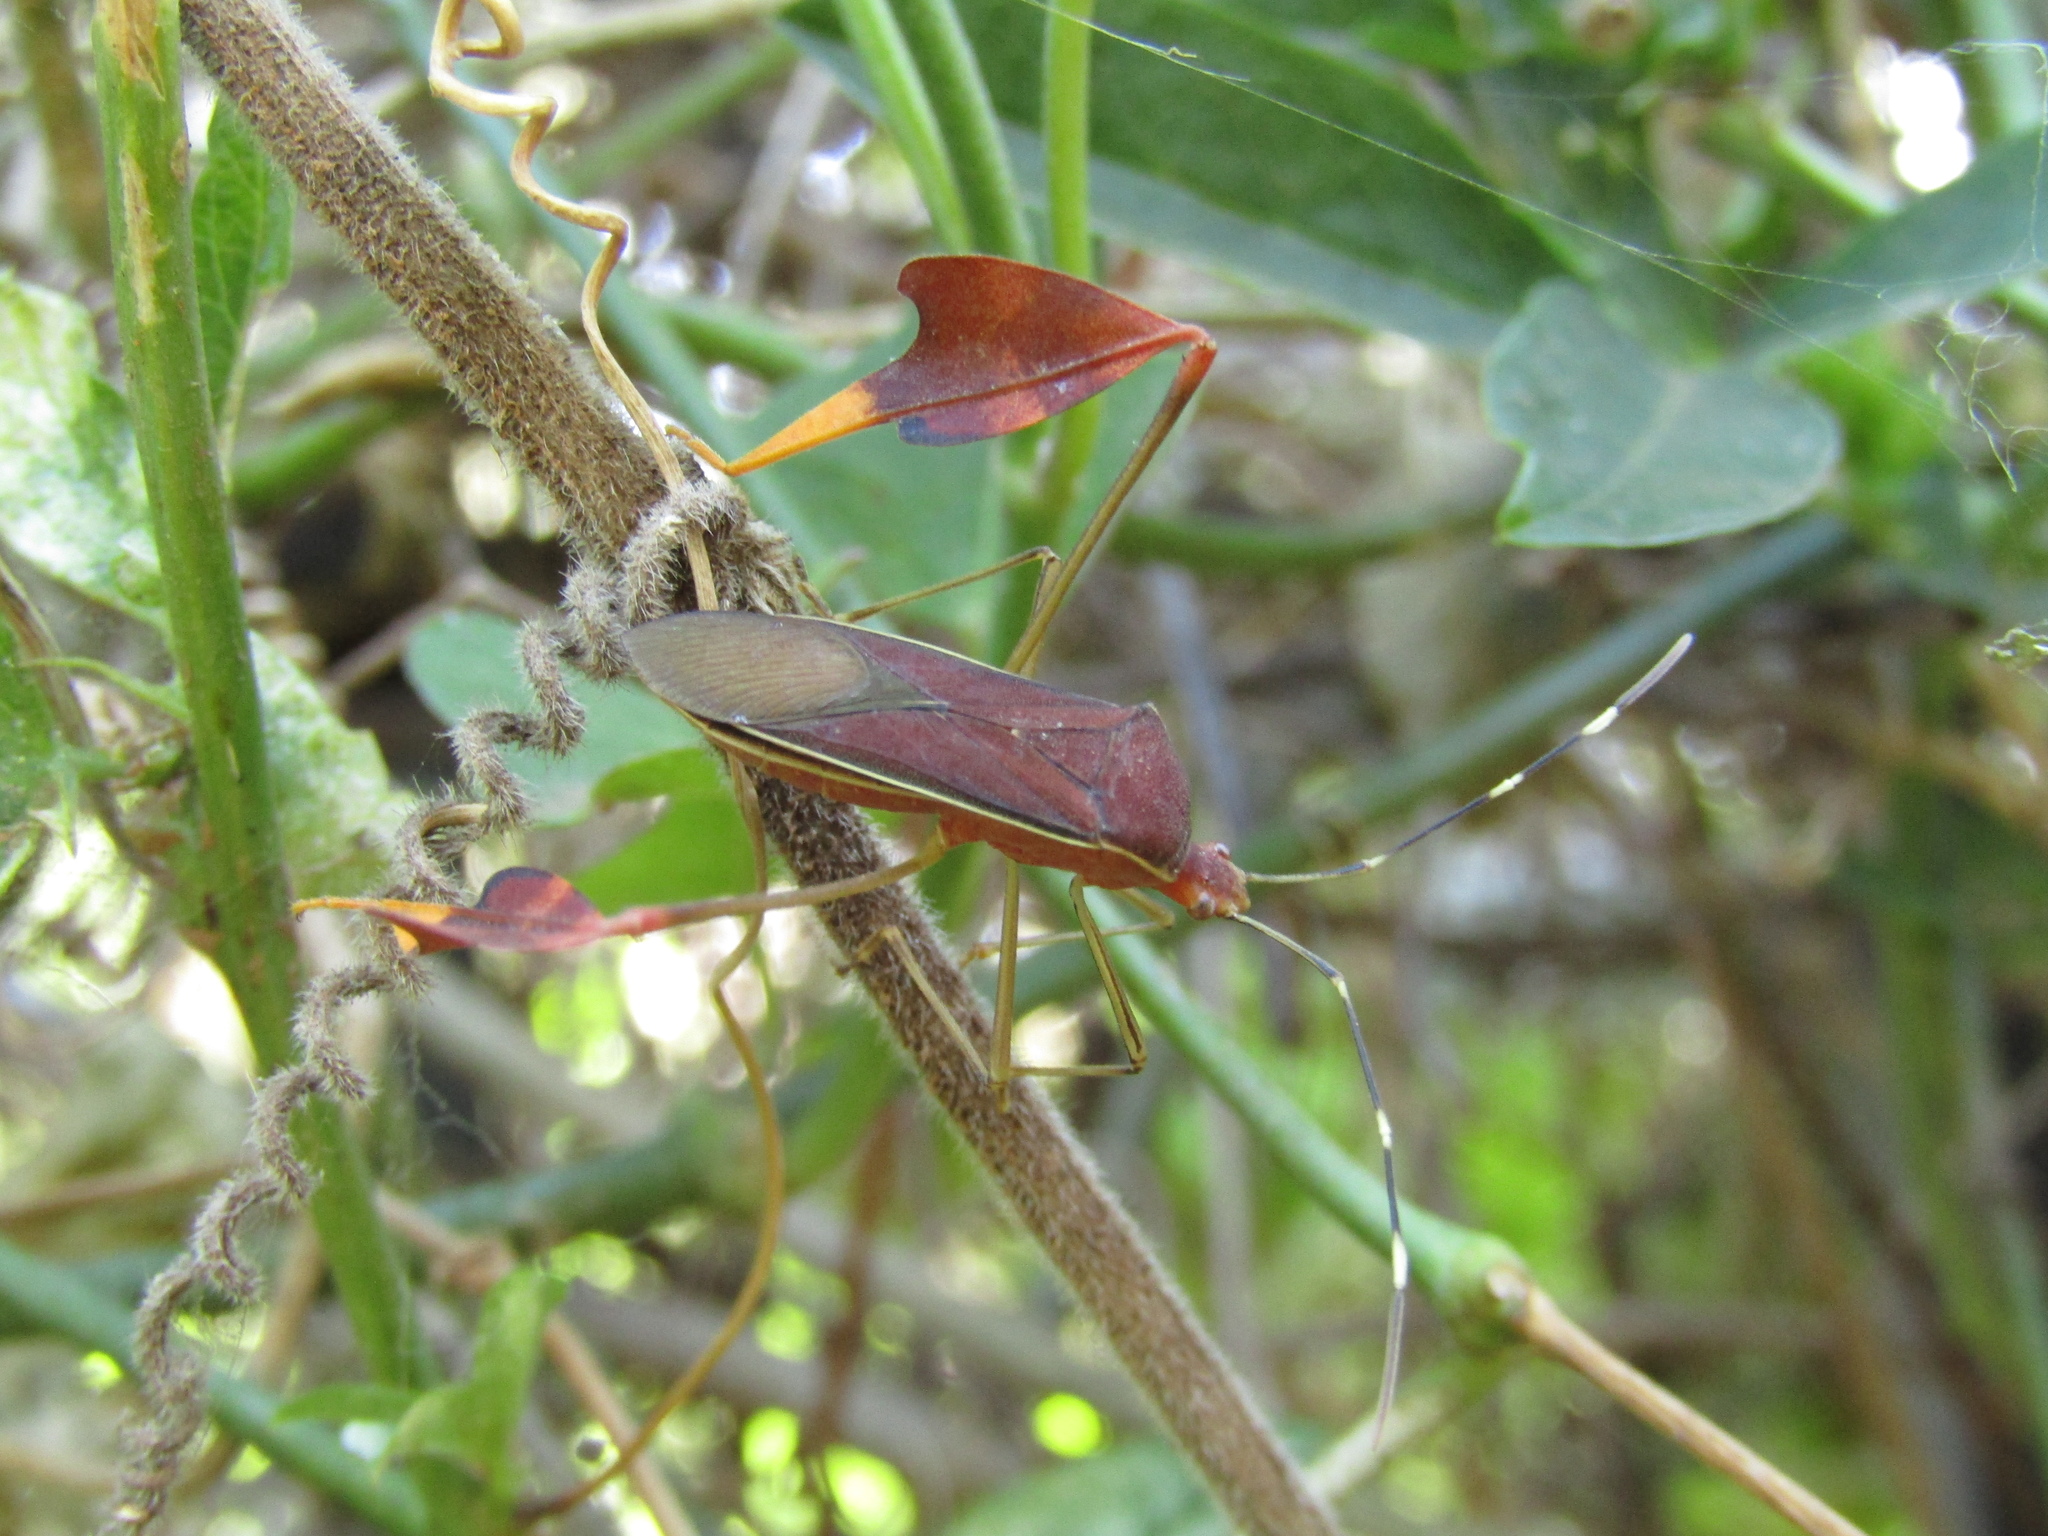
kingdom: Animalia
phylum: Arthropoda
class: Insecta
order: Hemiptera
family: Coreidae
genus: Anisoscelis
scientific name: Anisoscelis marginellus
